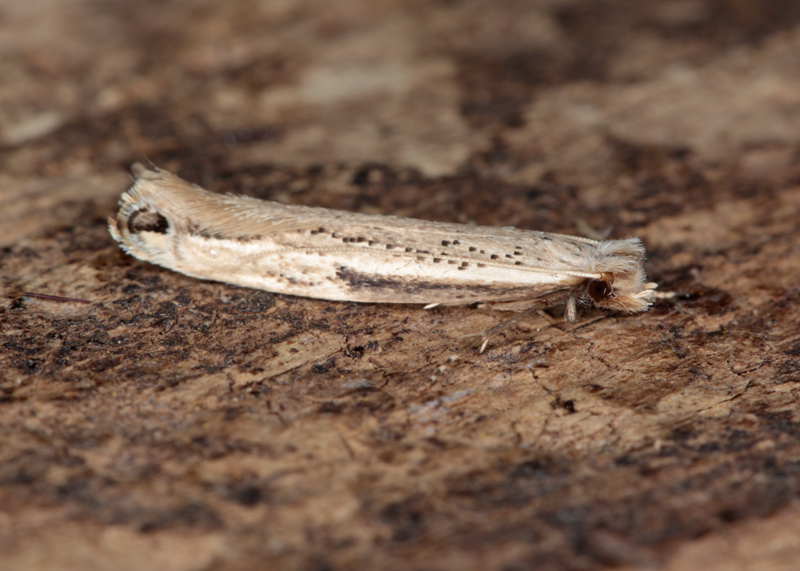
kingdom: Animalia
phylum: Arthropoda
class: Insecta
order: Lepidoptera
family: Tineidae
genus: Erechthias
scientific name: Erechthias hemiclistra
